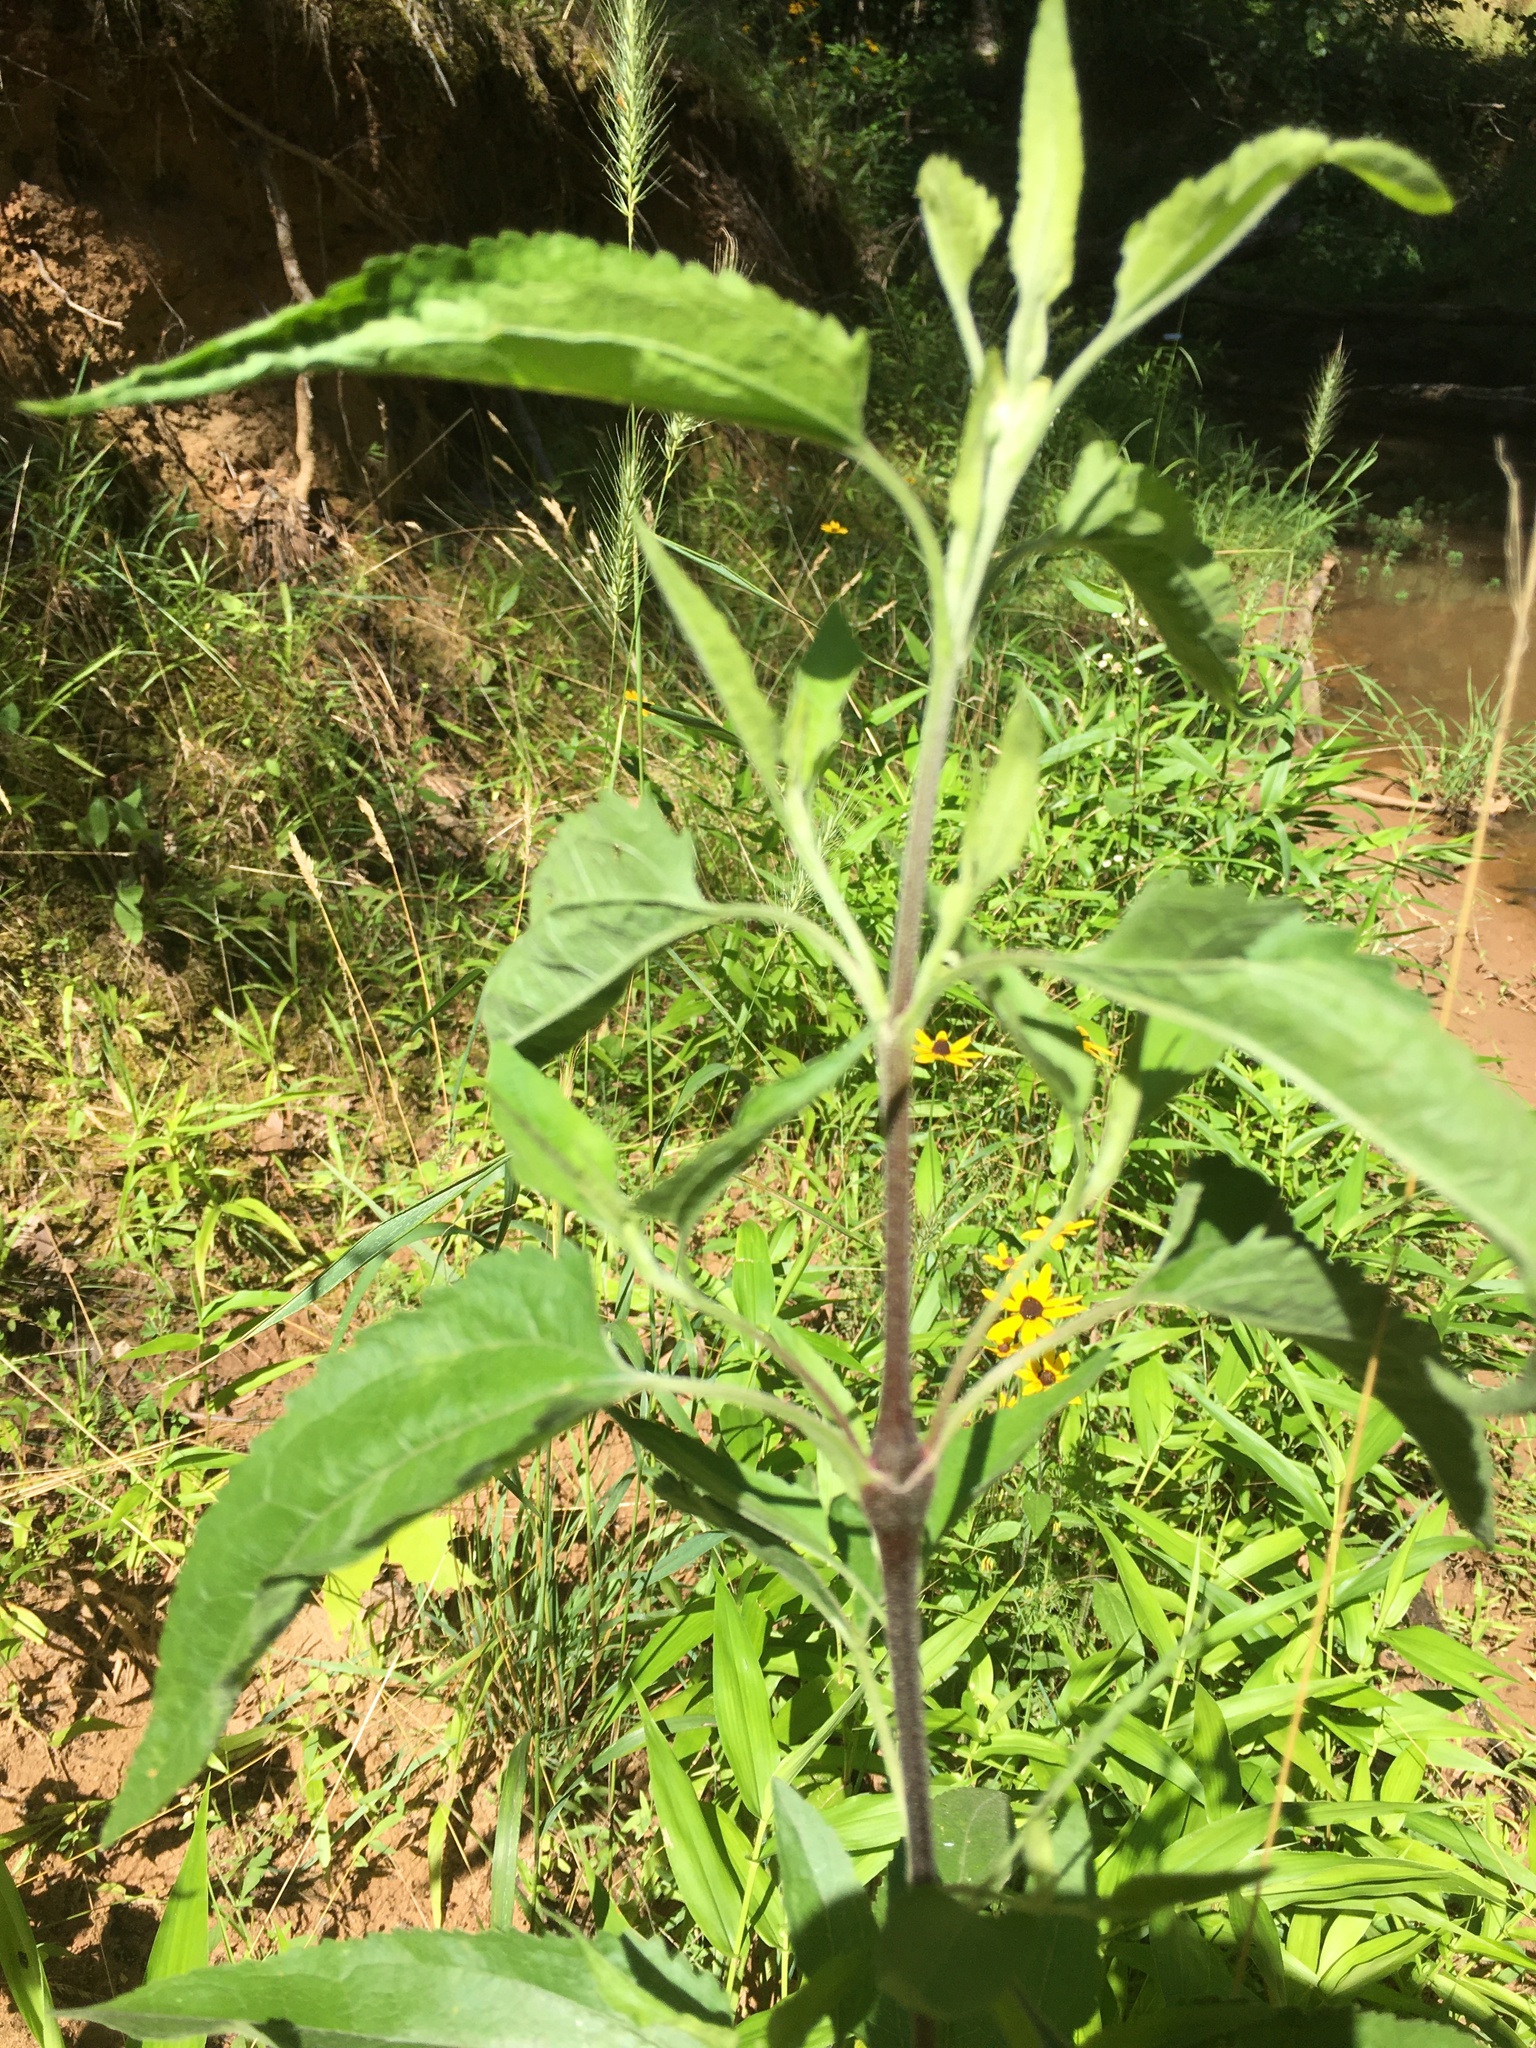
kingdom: Plantae
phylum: Tracheophyta
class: Magnoliopsida
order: Asterales
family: Asteraceae
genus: Eupatorium
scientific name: Eupatorium serotinum
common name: Late boneset
